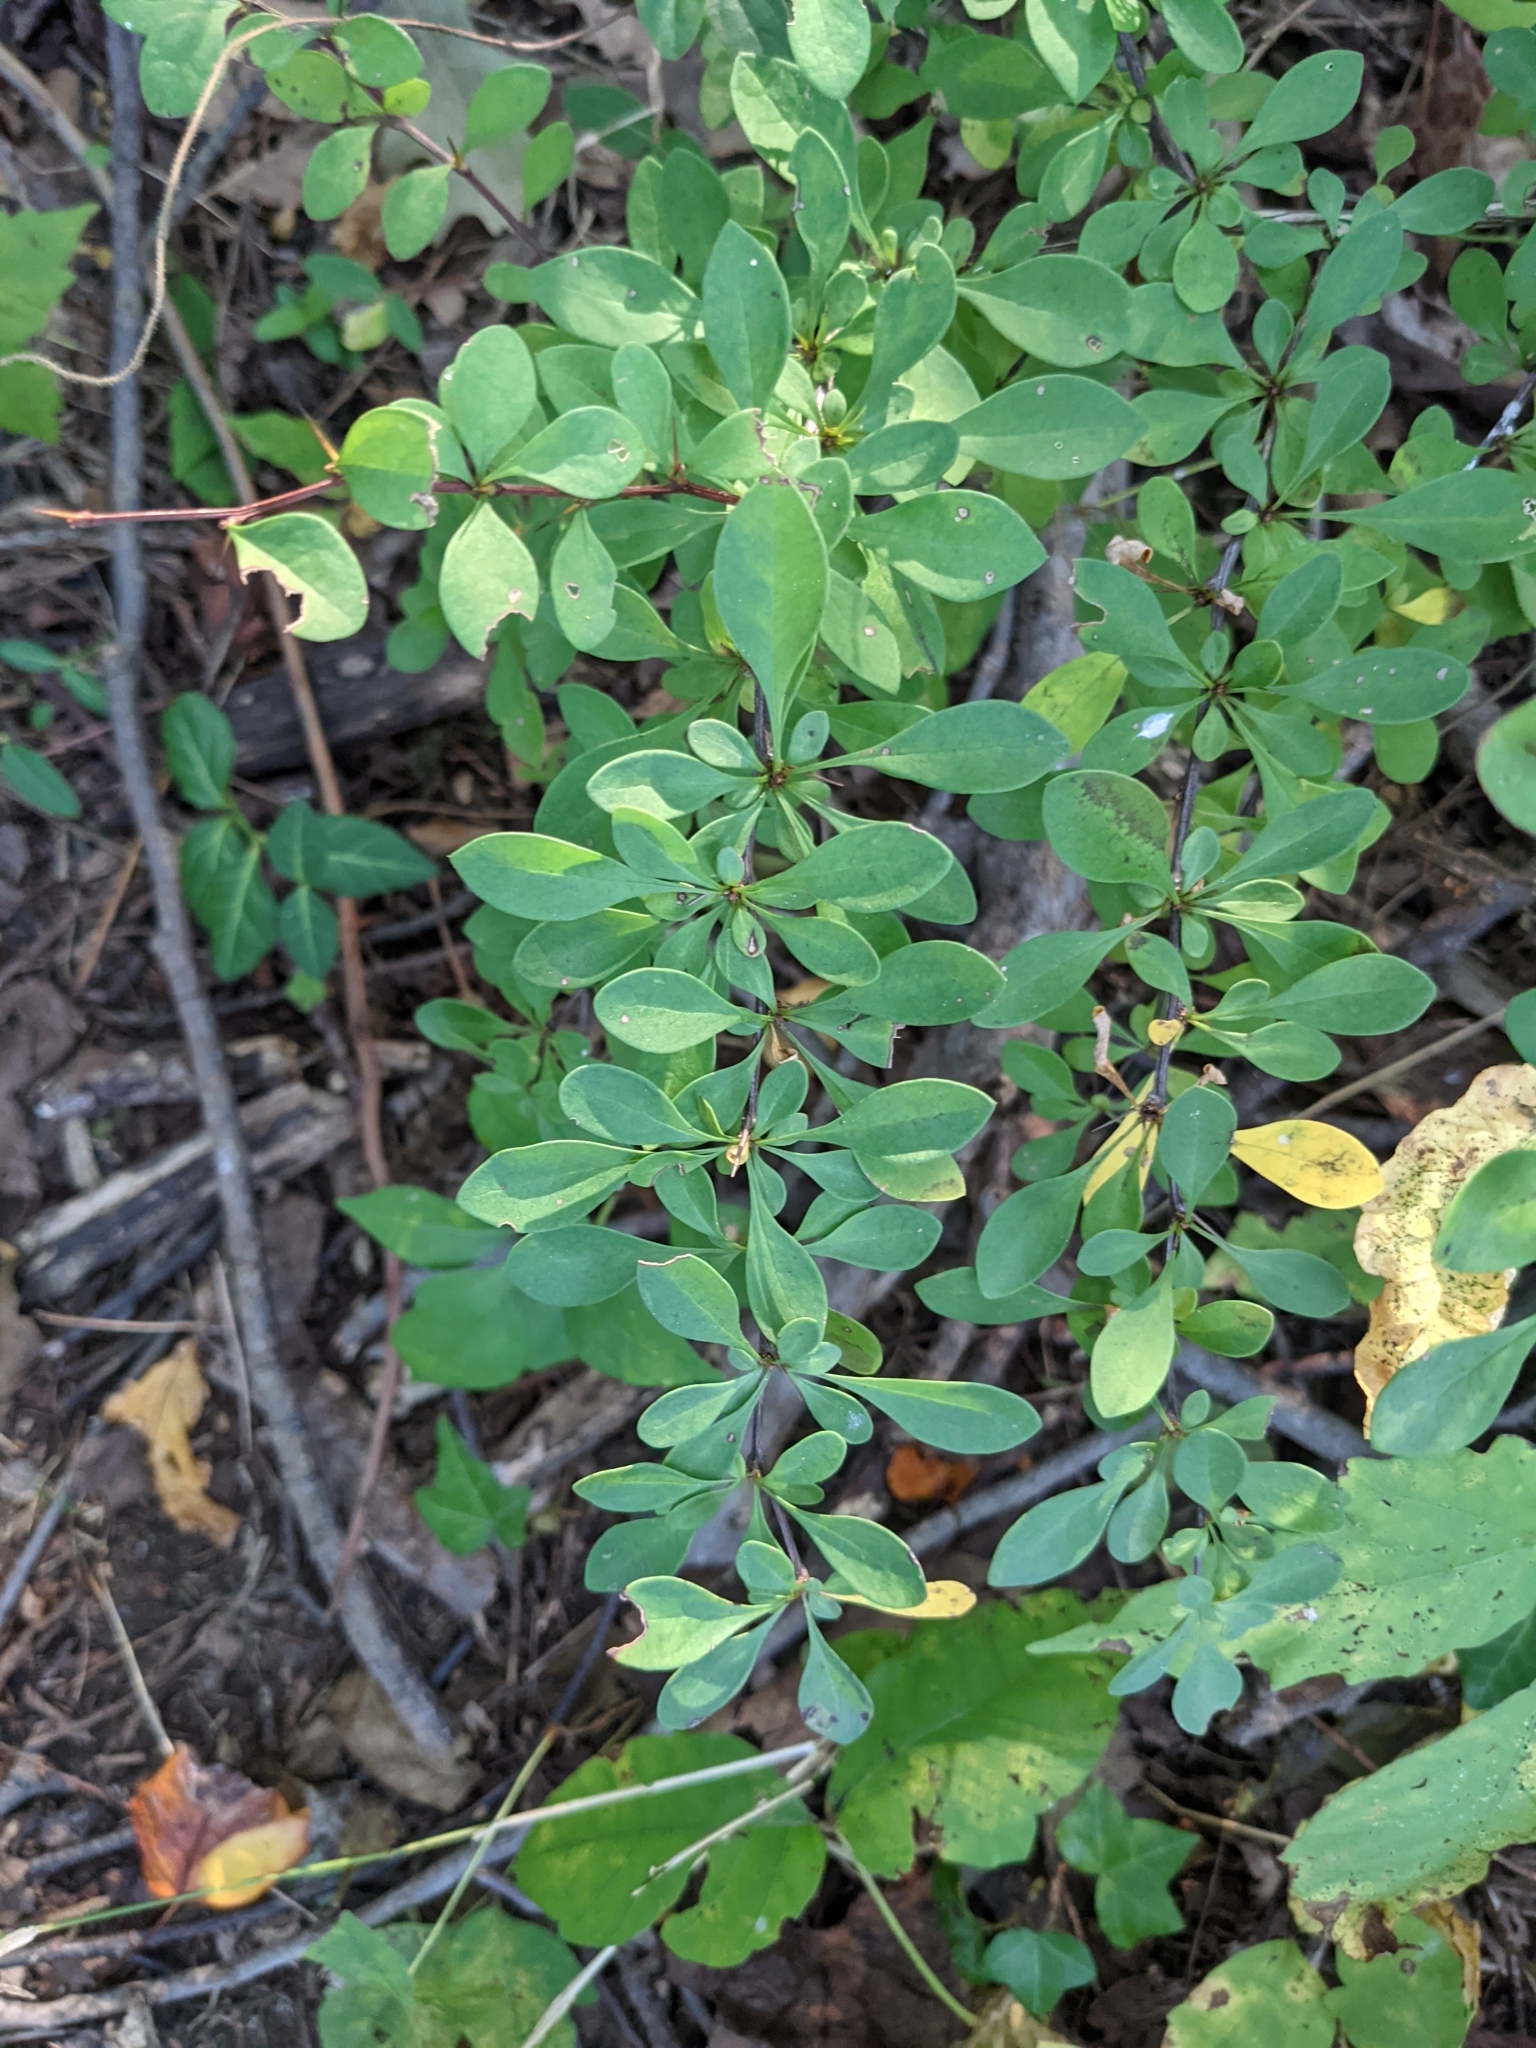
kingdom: Plantae
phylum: Tracheophyta
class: Magnoliopsida
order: Ranunculales
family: Berberidaceae
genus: Berberis
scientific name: Berberis thunbergii
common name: Japanese barberry
